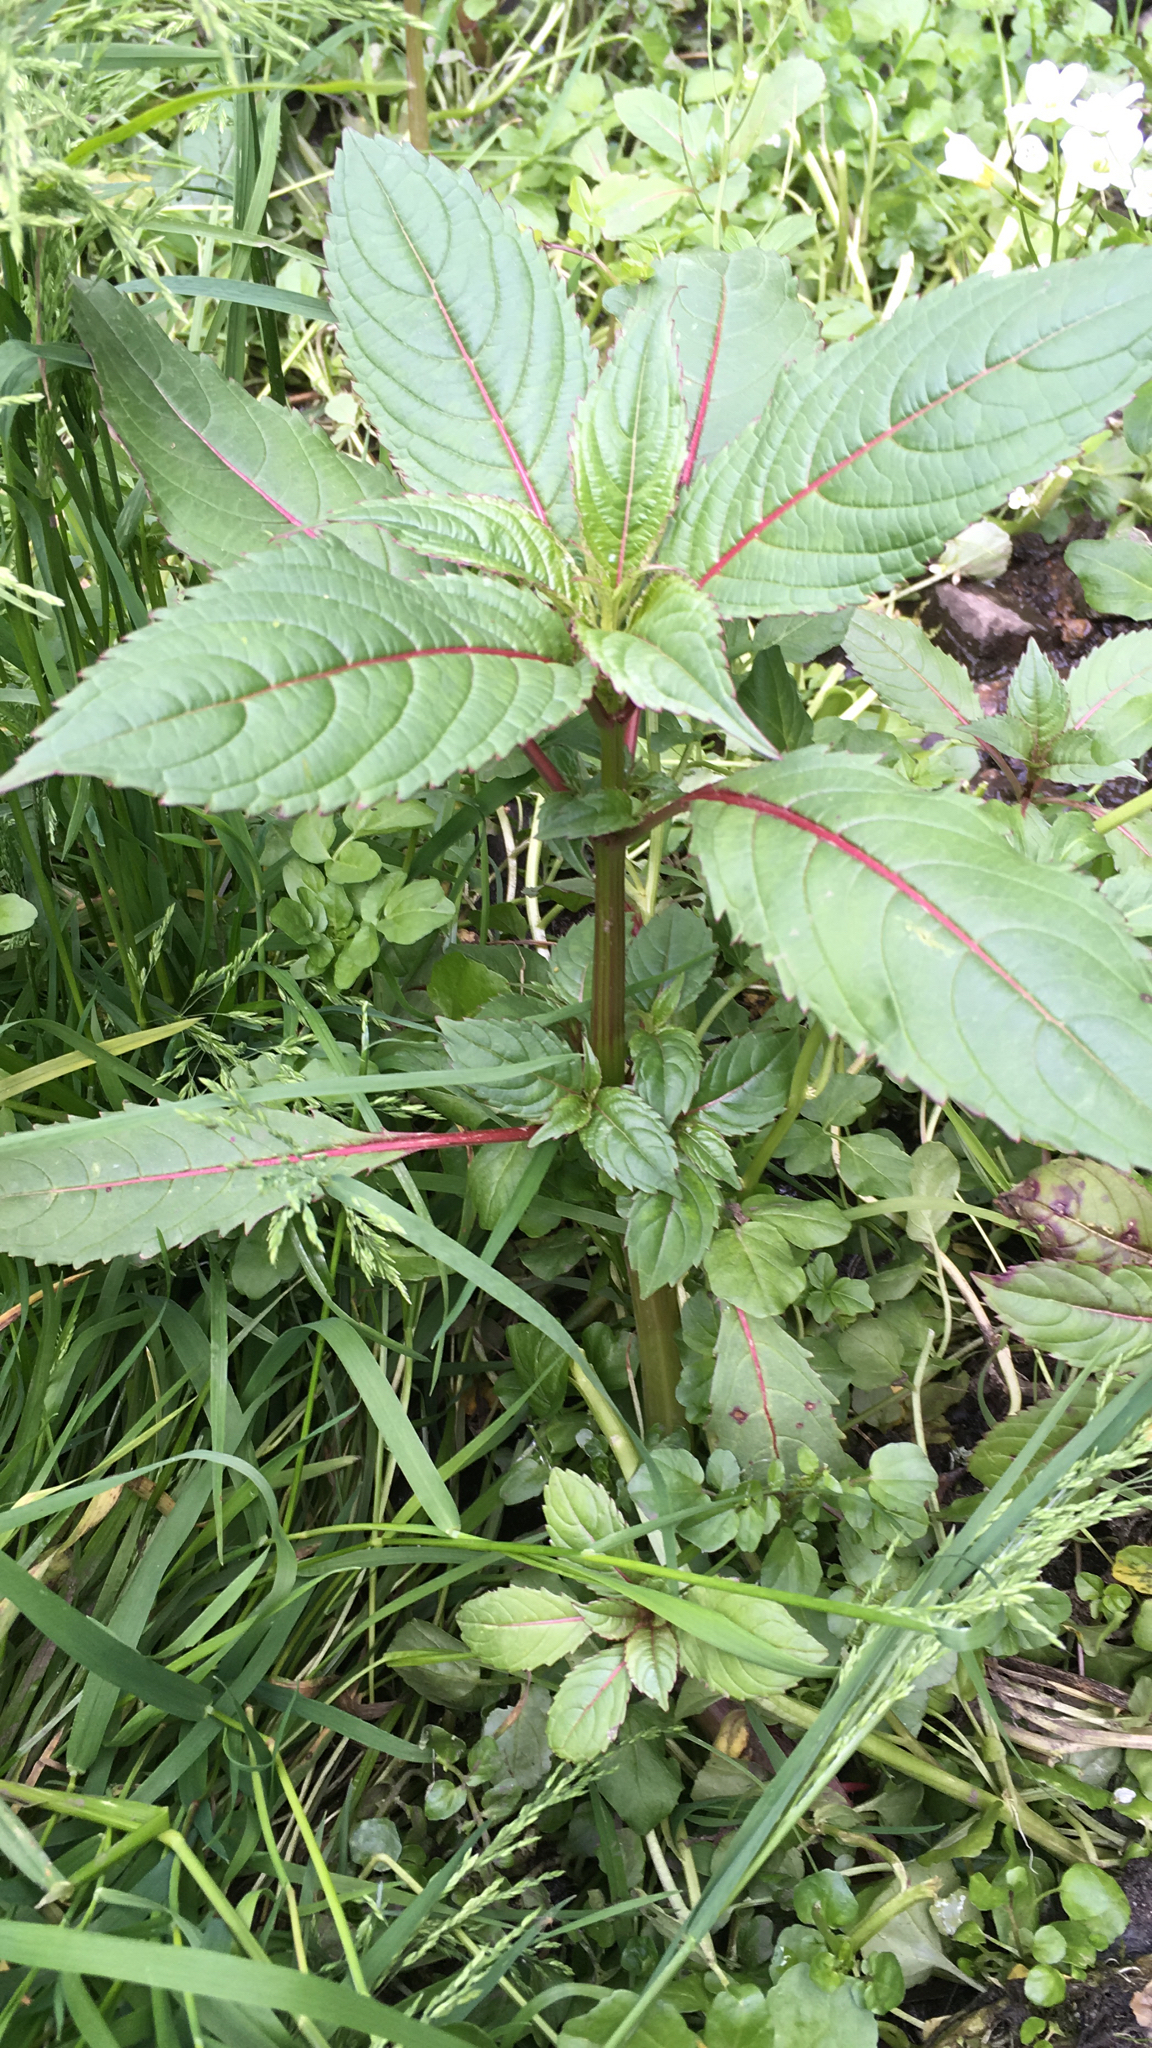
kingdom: Plantae
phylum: Tracheophyta
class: Magnoliopsida
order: Ericales
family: Balsaminaceae
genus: Impatiens
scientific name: Impatiens glandulifera
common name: Himalayan balsam
